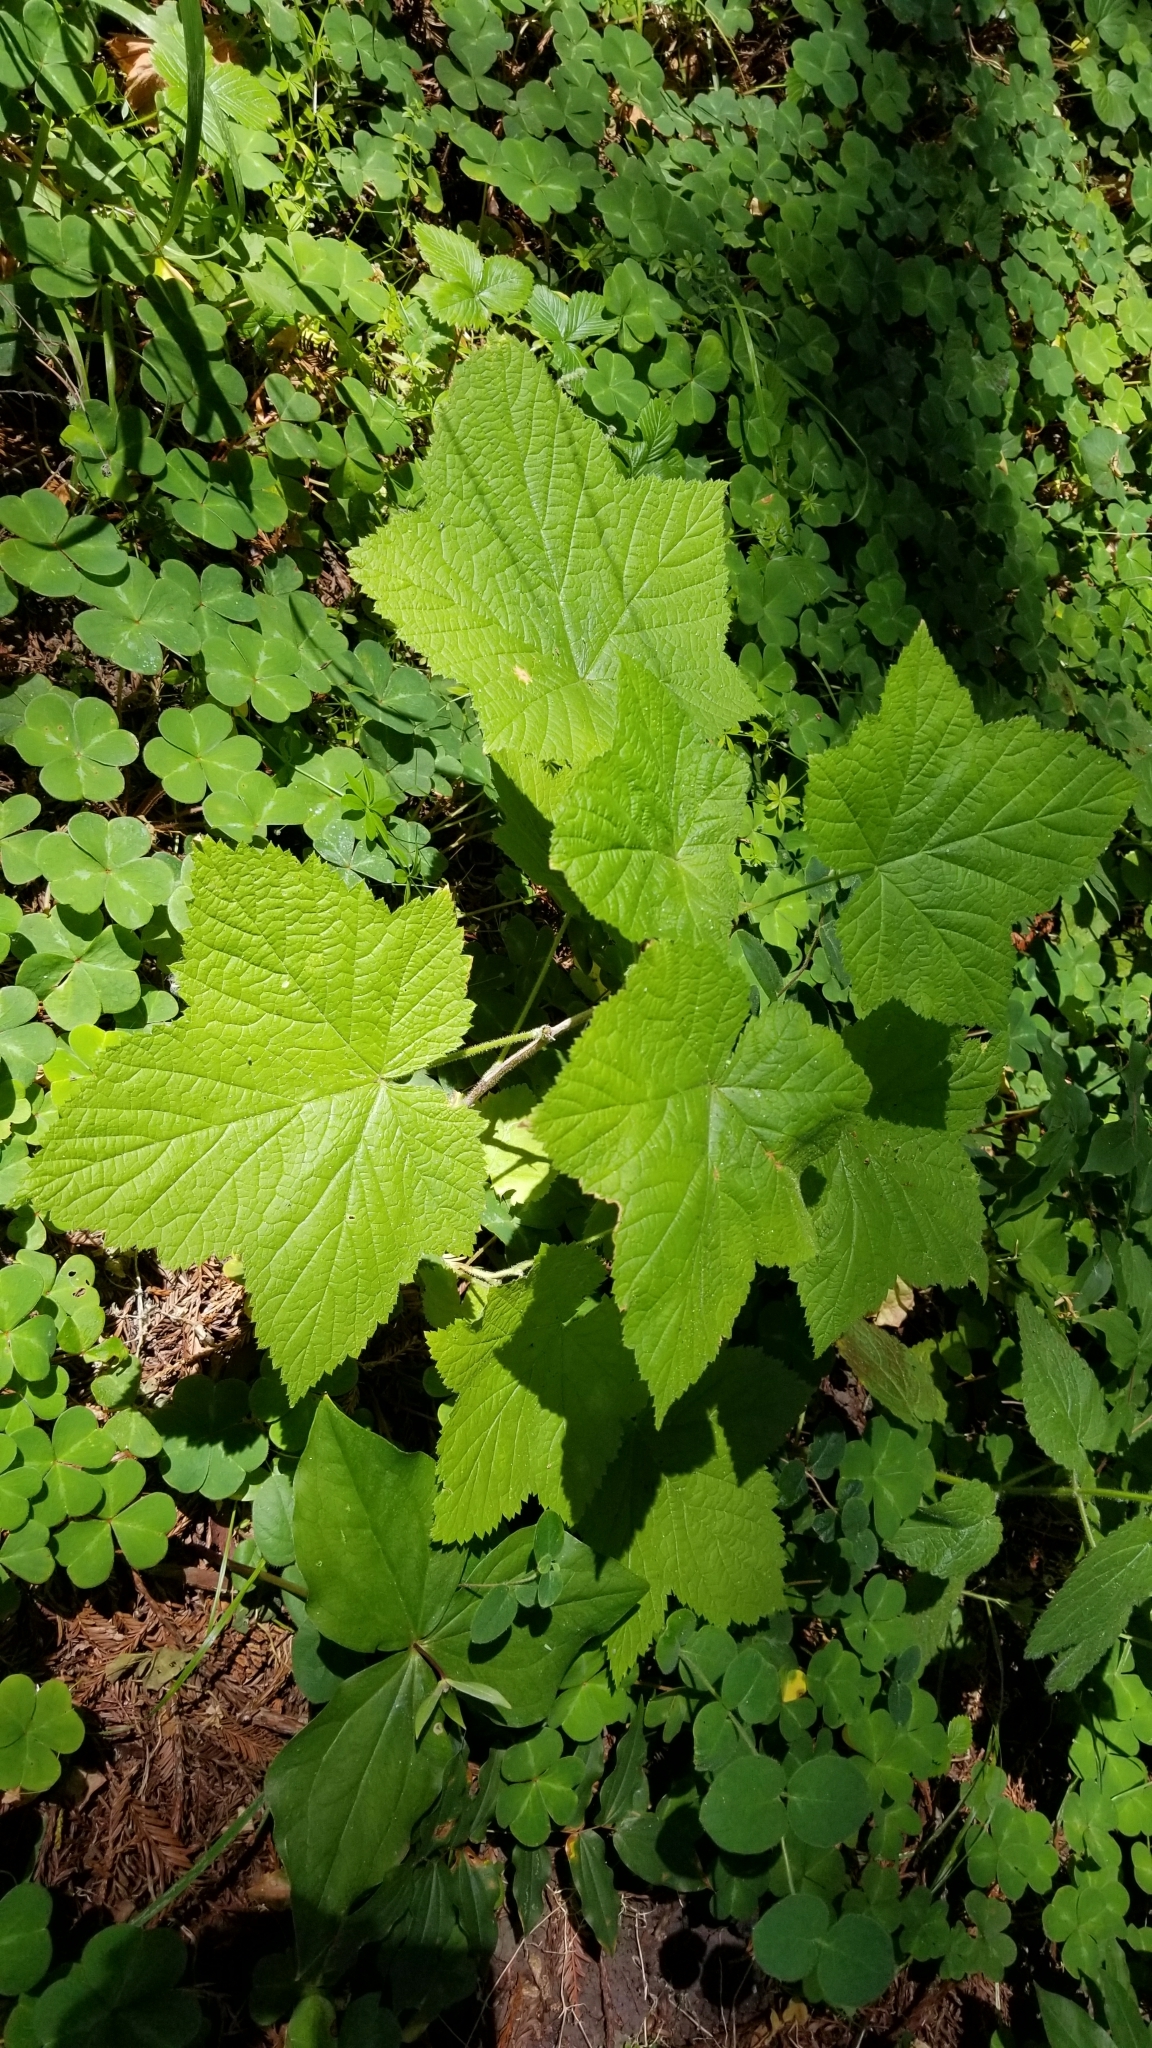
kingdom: Plantae
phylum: Tracheophyta
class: Magnoliopsida
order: Rosales
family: Rosaceae
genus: Rubus
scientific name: Rubus parviflorus
